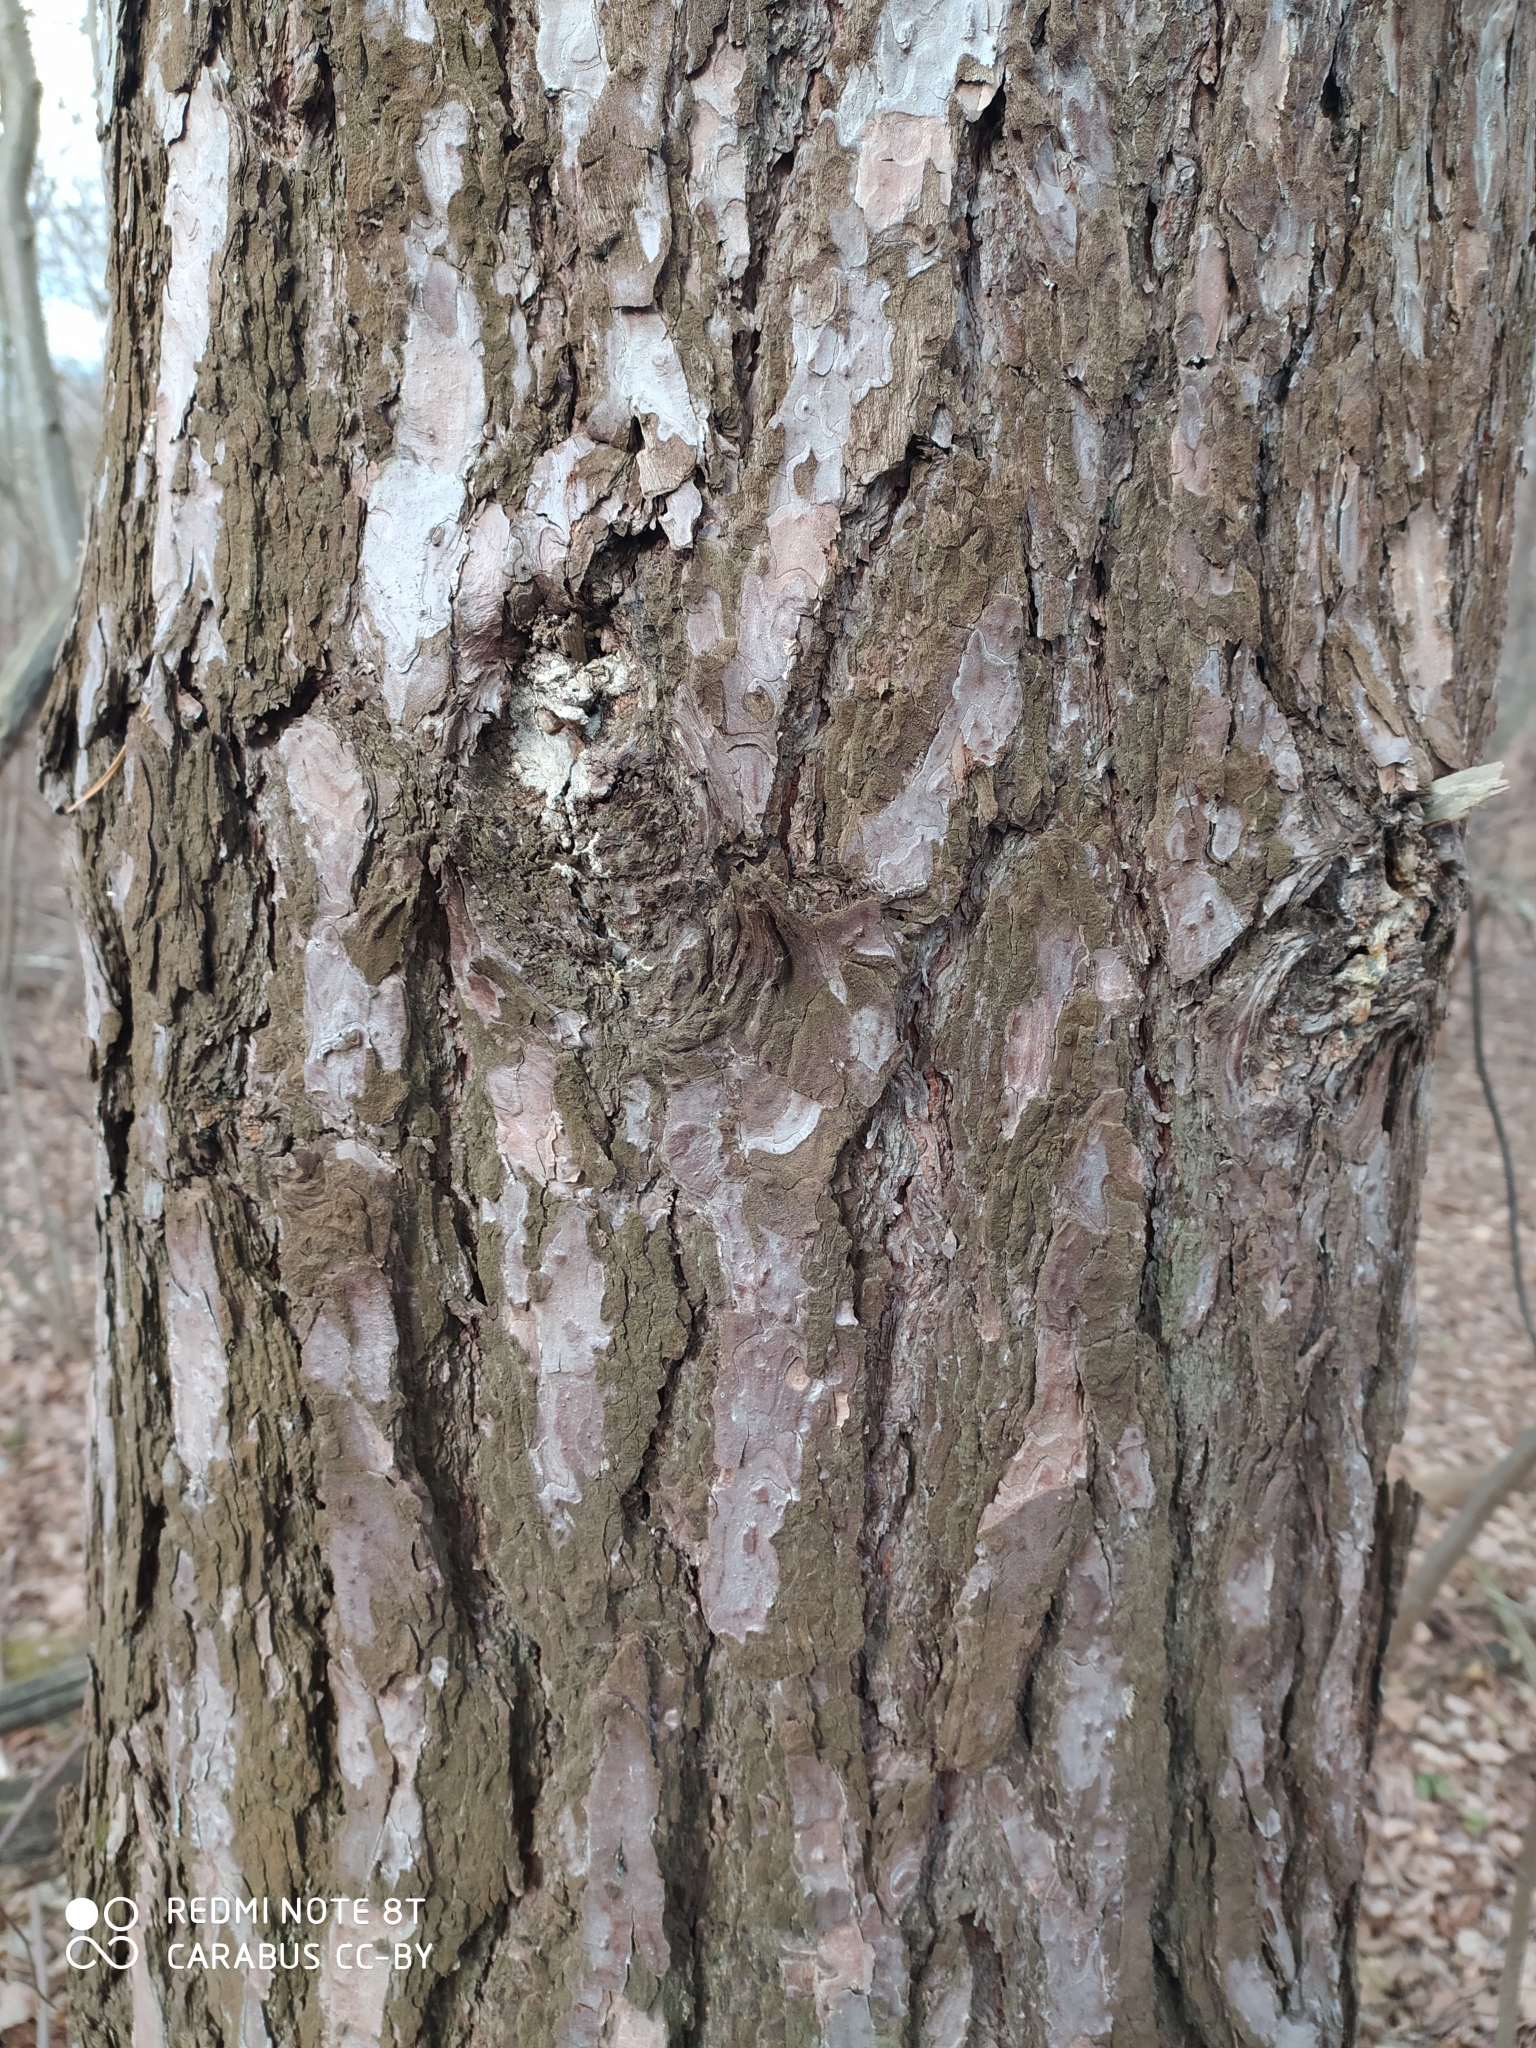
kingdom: Plantae
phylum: Tracheophyta
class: Pinopsida
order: Pinales
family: Pinaceae
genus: Pinus
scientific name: Pinus sylvestris
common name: Scots pine
